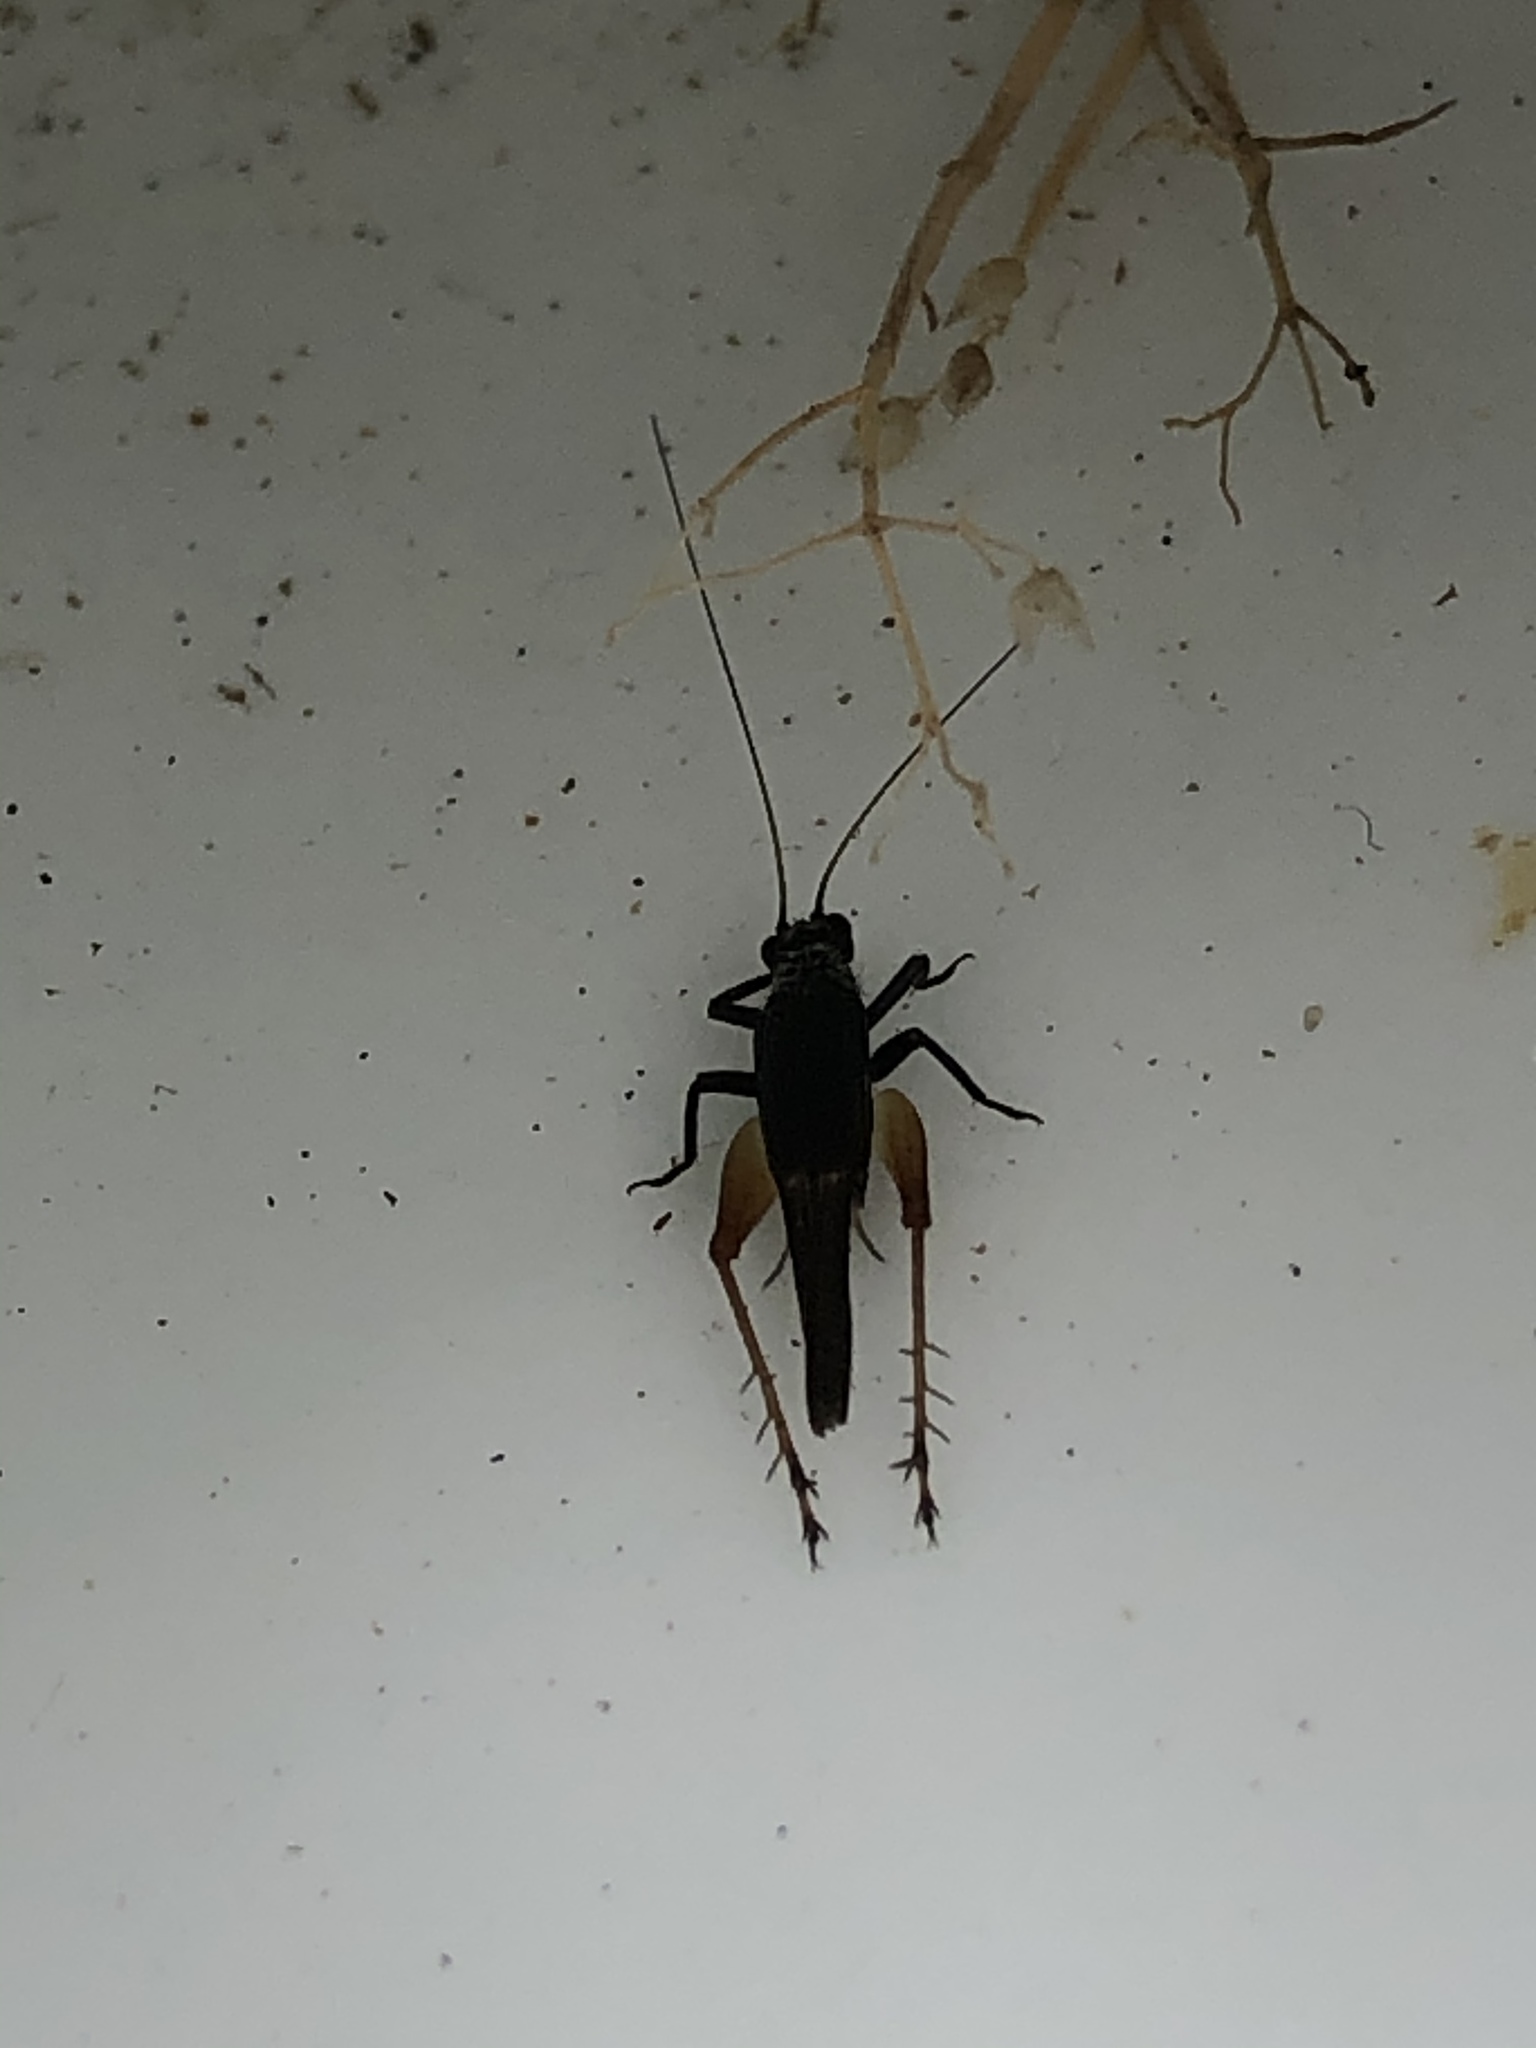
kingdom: Animalia
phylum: Arthropoda
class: Insecta
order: Orthoptera
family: Trigonidiidae
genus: Trigonidium
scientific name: Trigonidium cicindeloides
